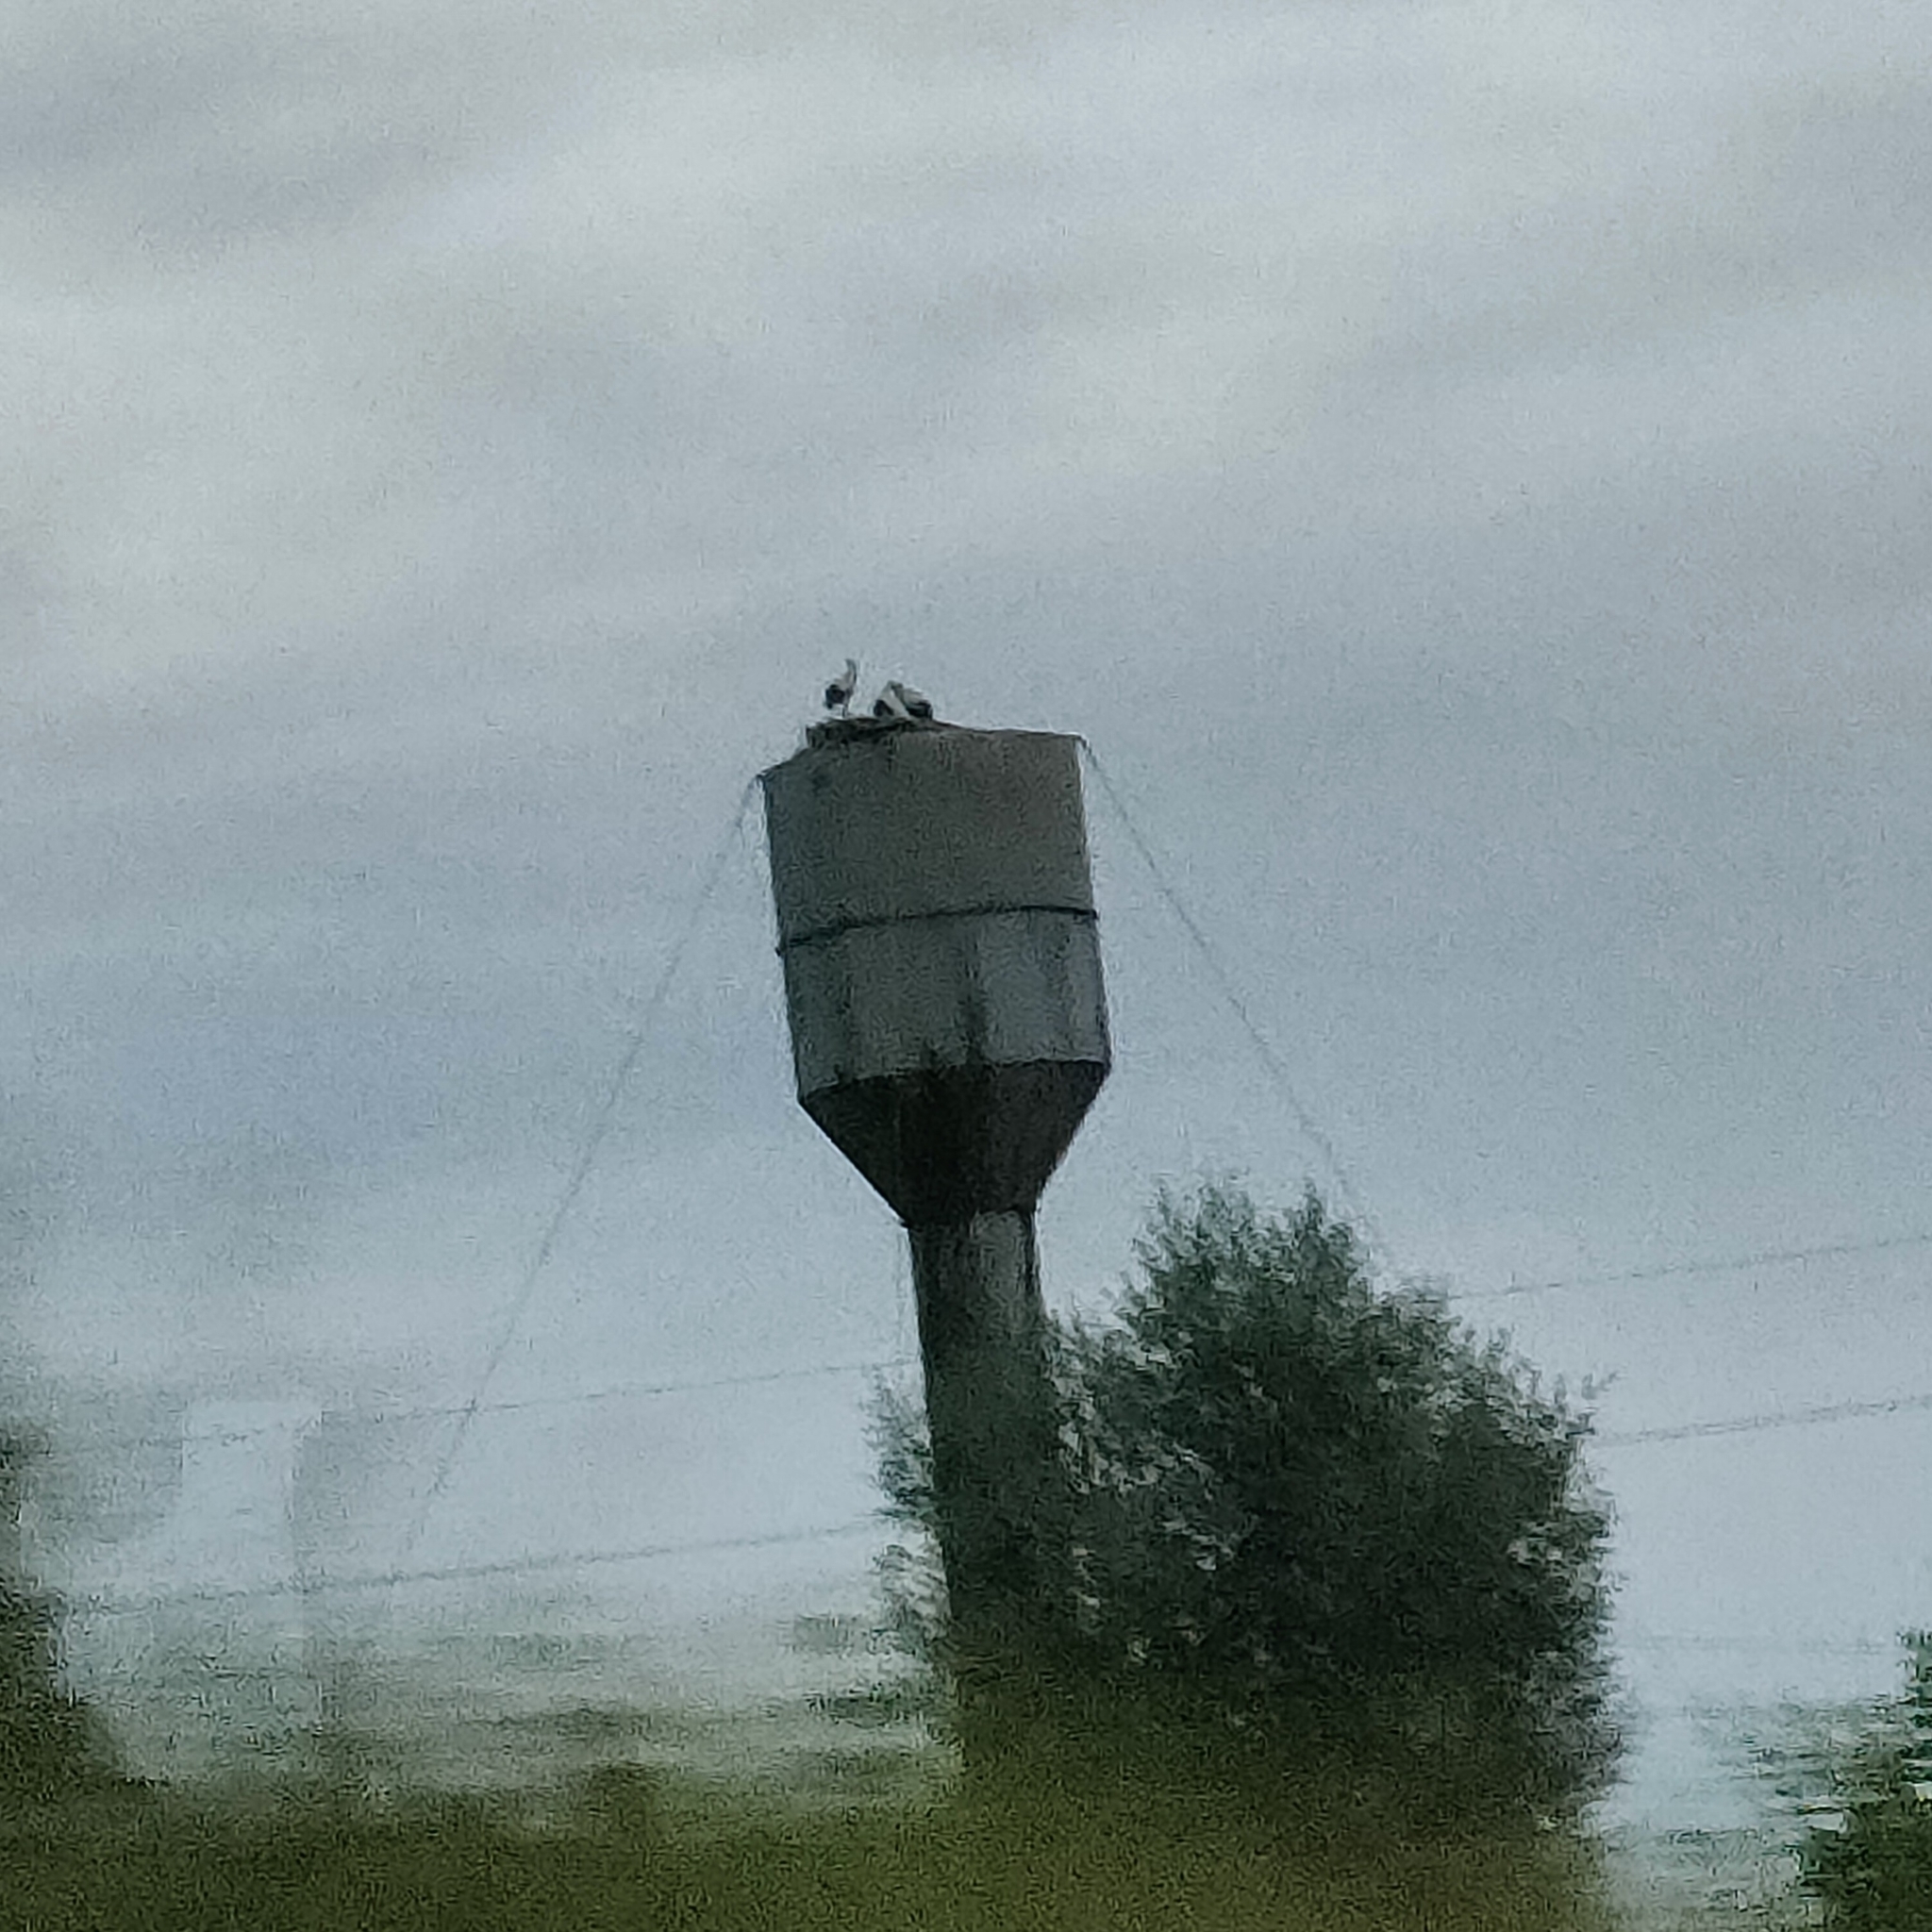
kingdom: Animalia
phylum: Chordata
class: Aves
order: Ciconiiformes
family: Ciconiidae
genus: Ciconia
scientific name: Ciconia ciconia
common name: White stork
